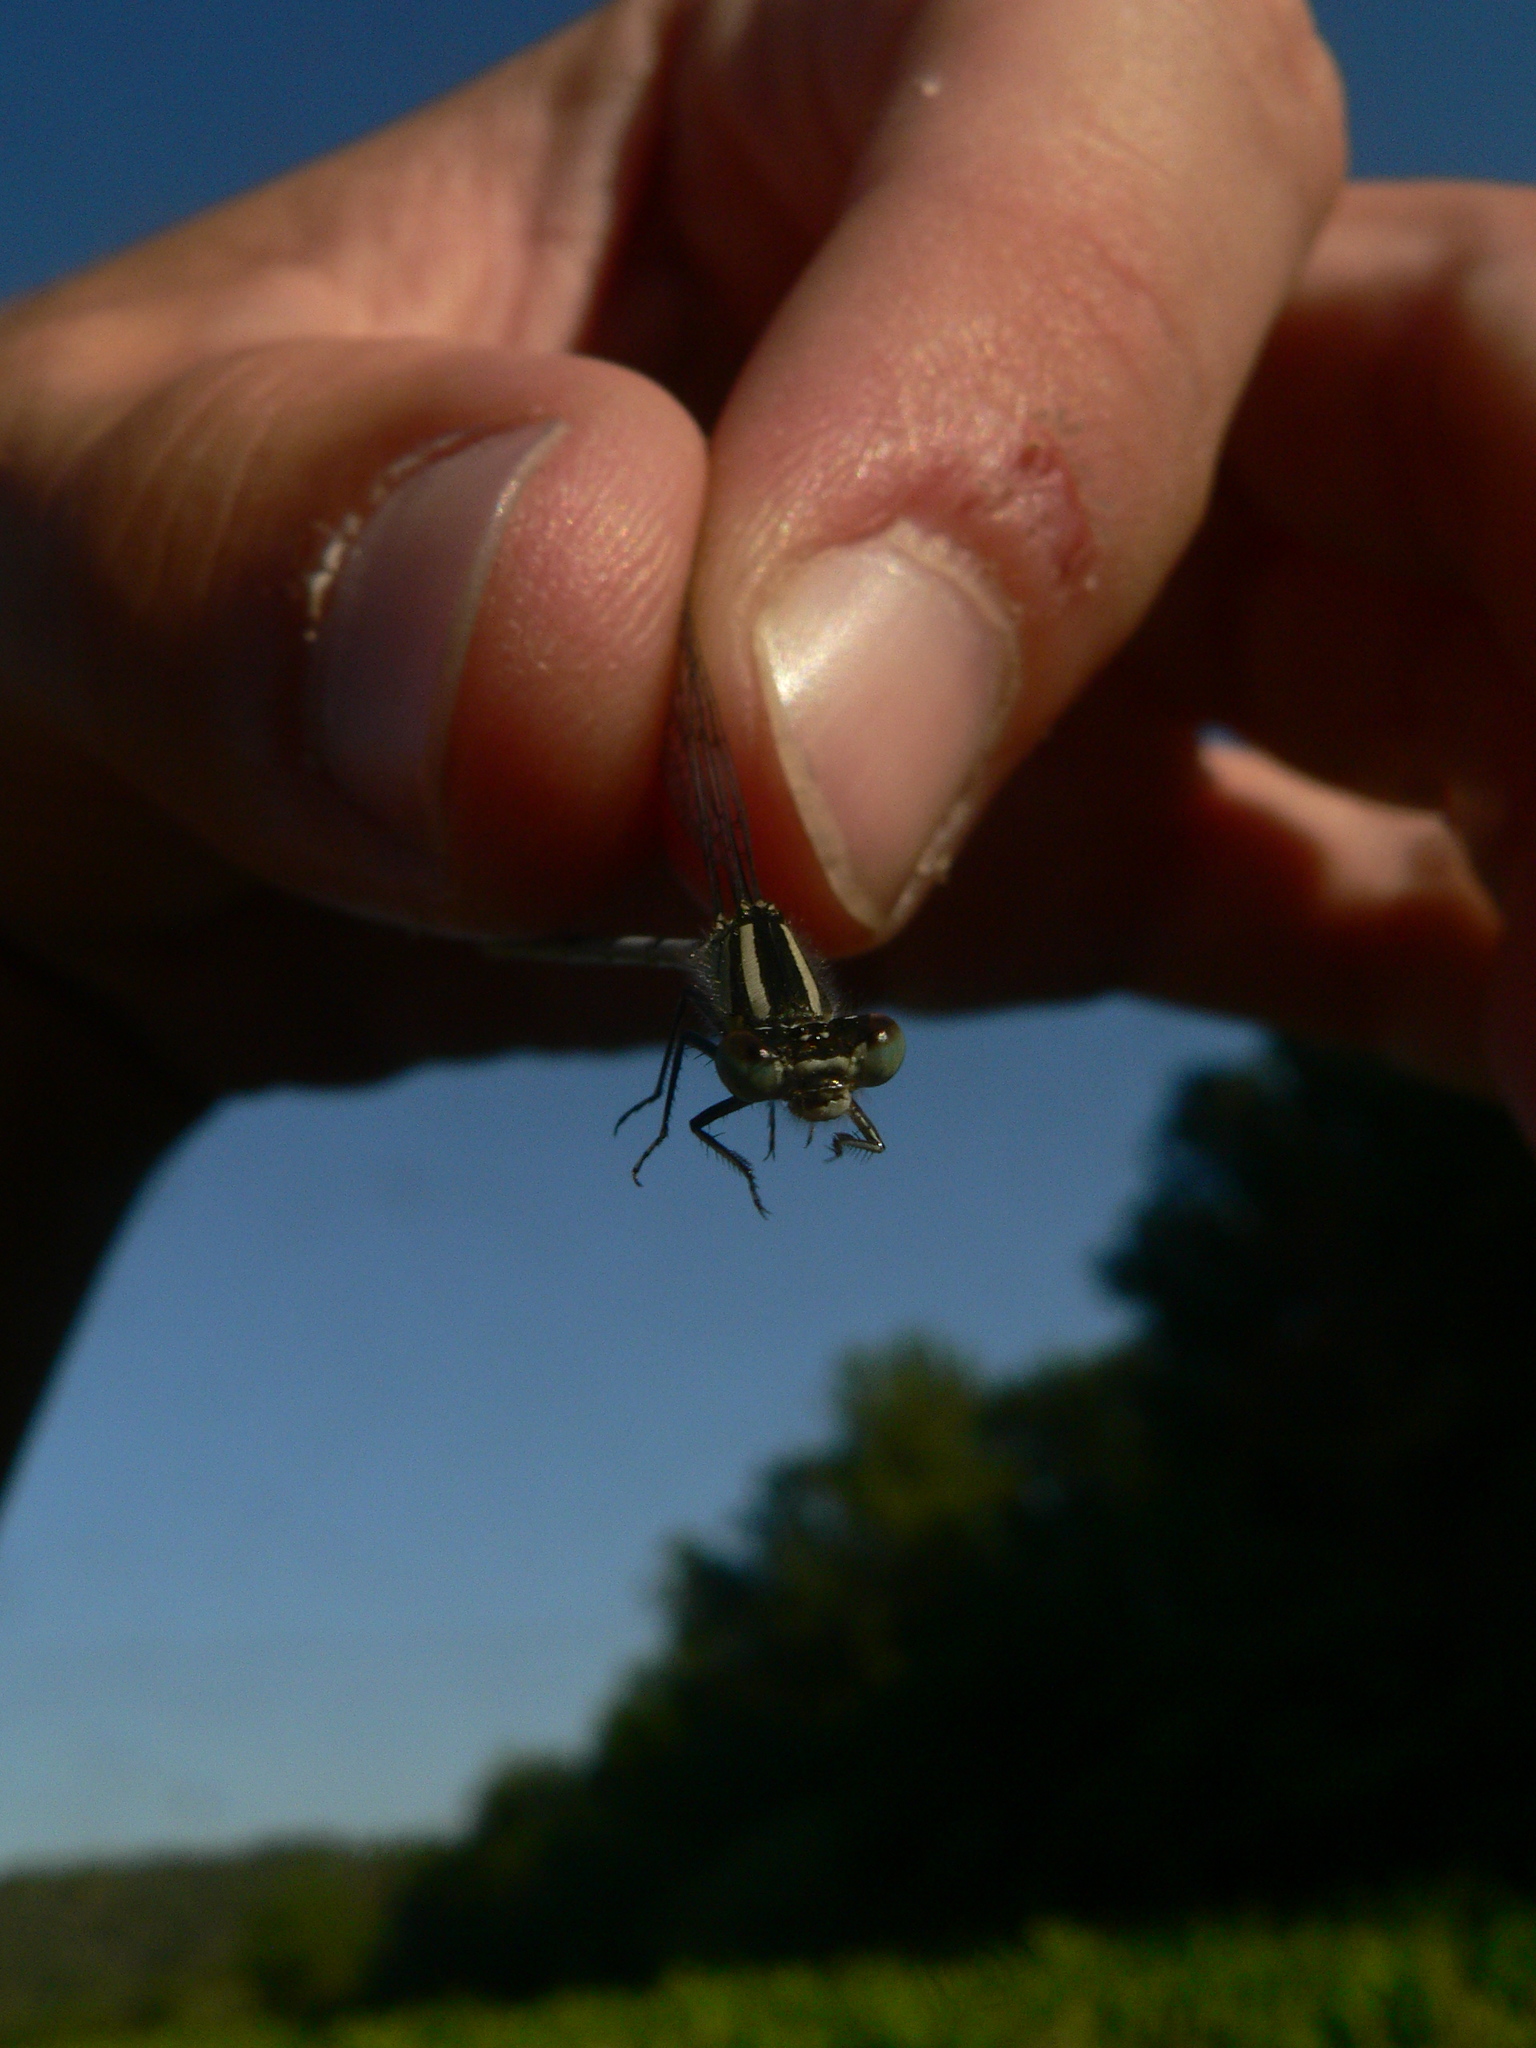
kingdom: Animalia
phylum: Arthropoda
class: Insecta
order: Odonata
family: Coenagrionidae
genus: Erythromma
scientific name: Erythromma lindenii
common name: Blue-eye
